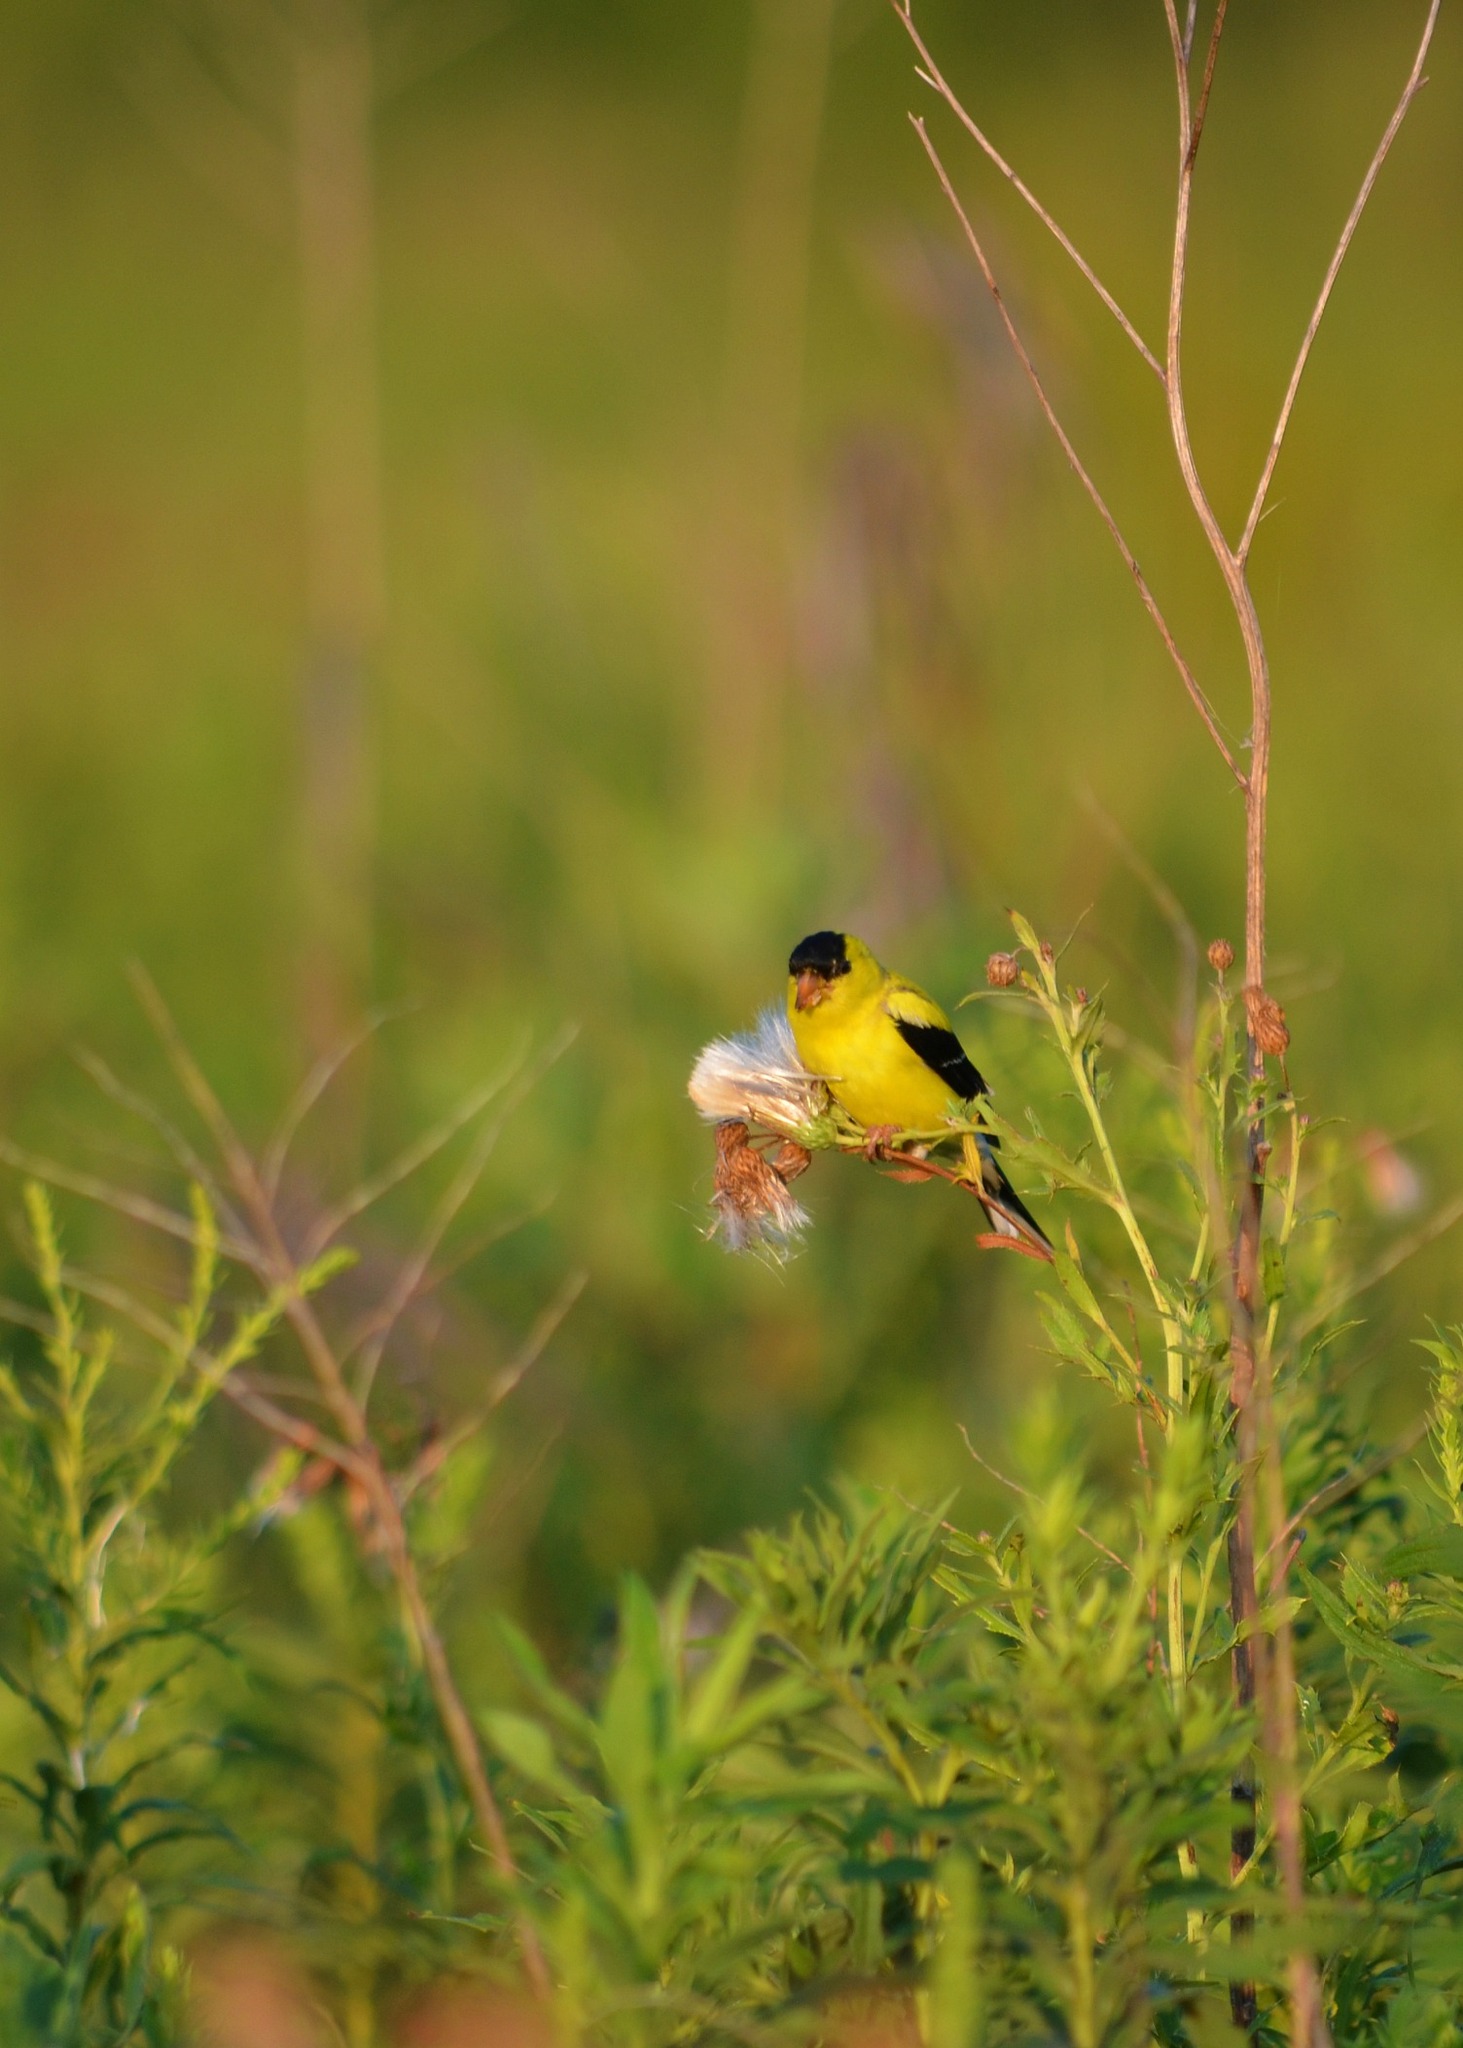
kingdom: Animalia
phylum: Chordata
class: Aves
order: Passeriformes
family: Fringillidae
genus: Spinus
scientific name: Spinus tristis
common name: American goldfinch
